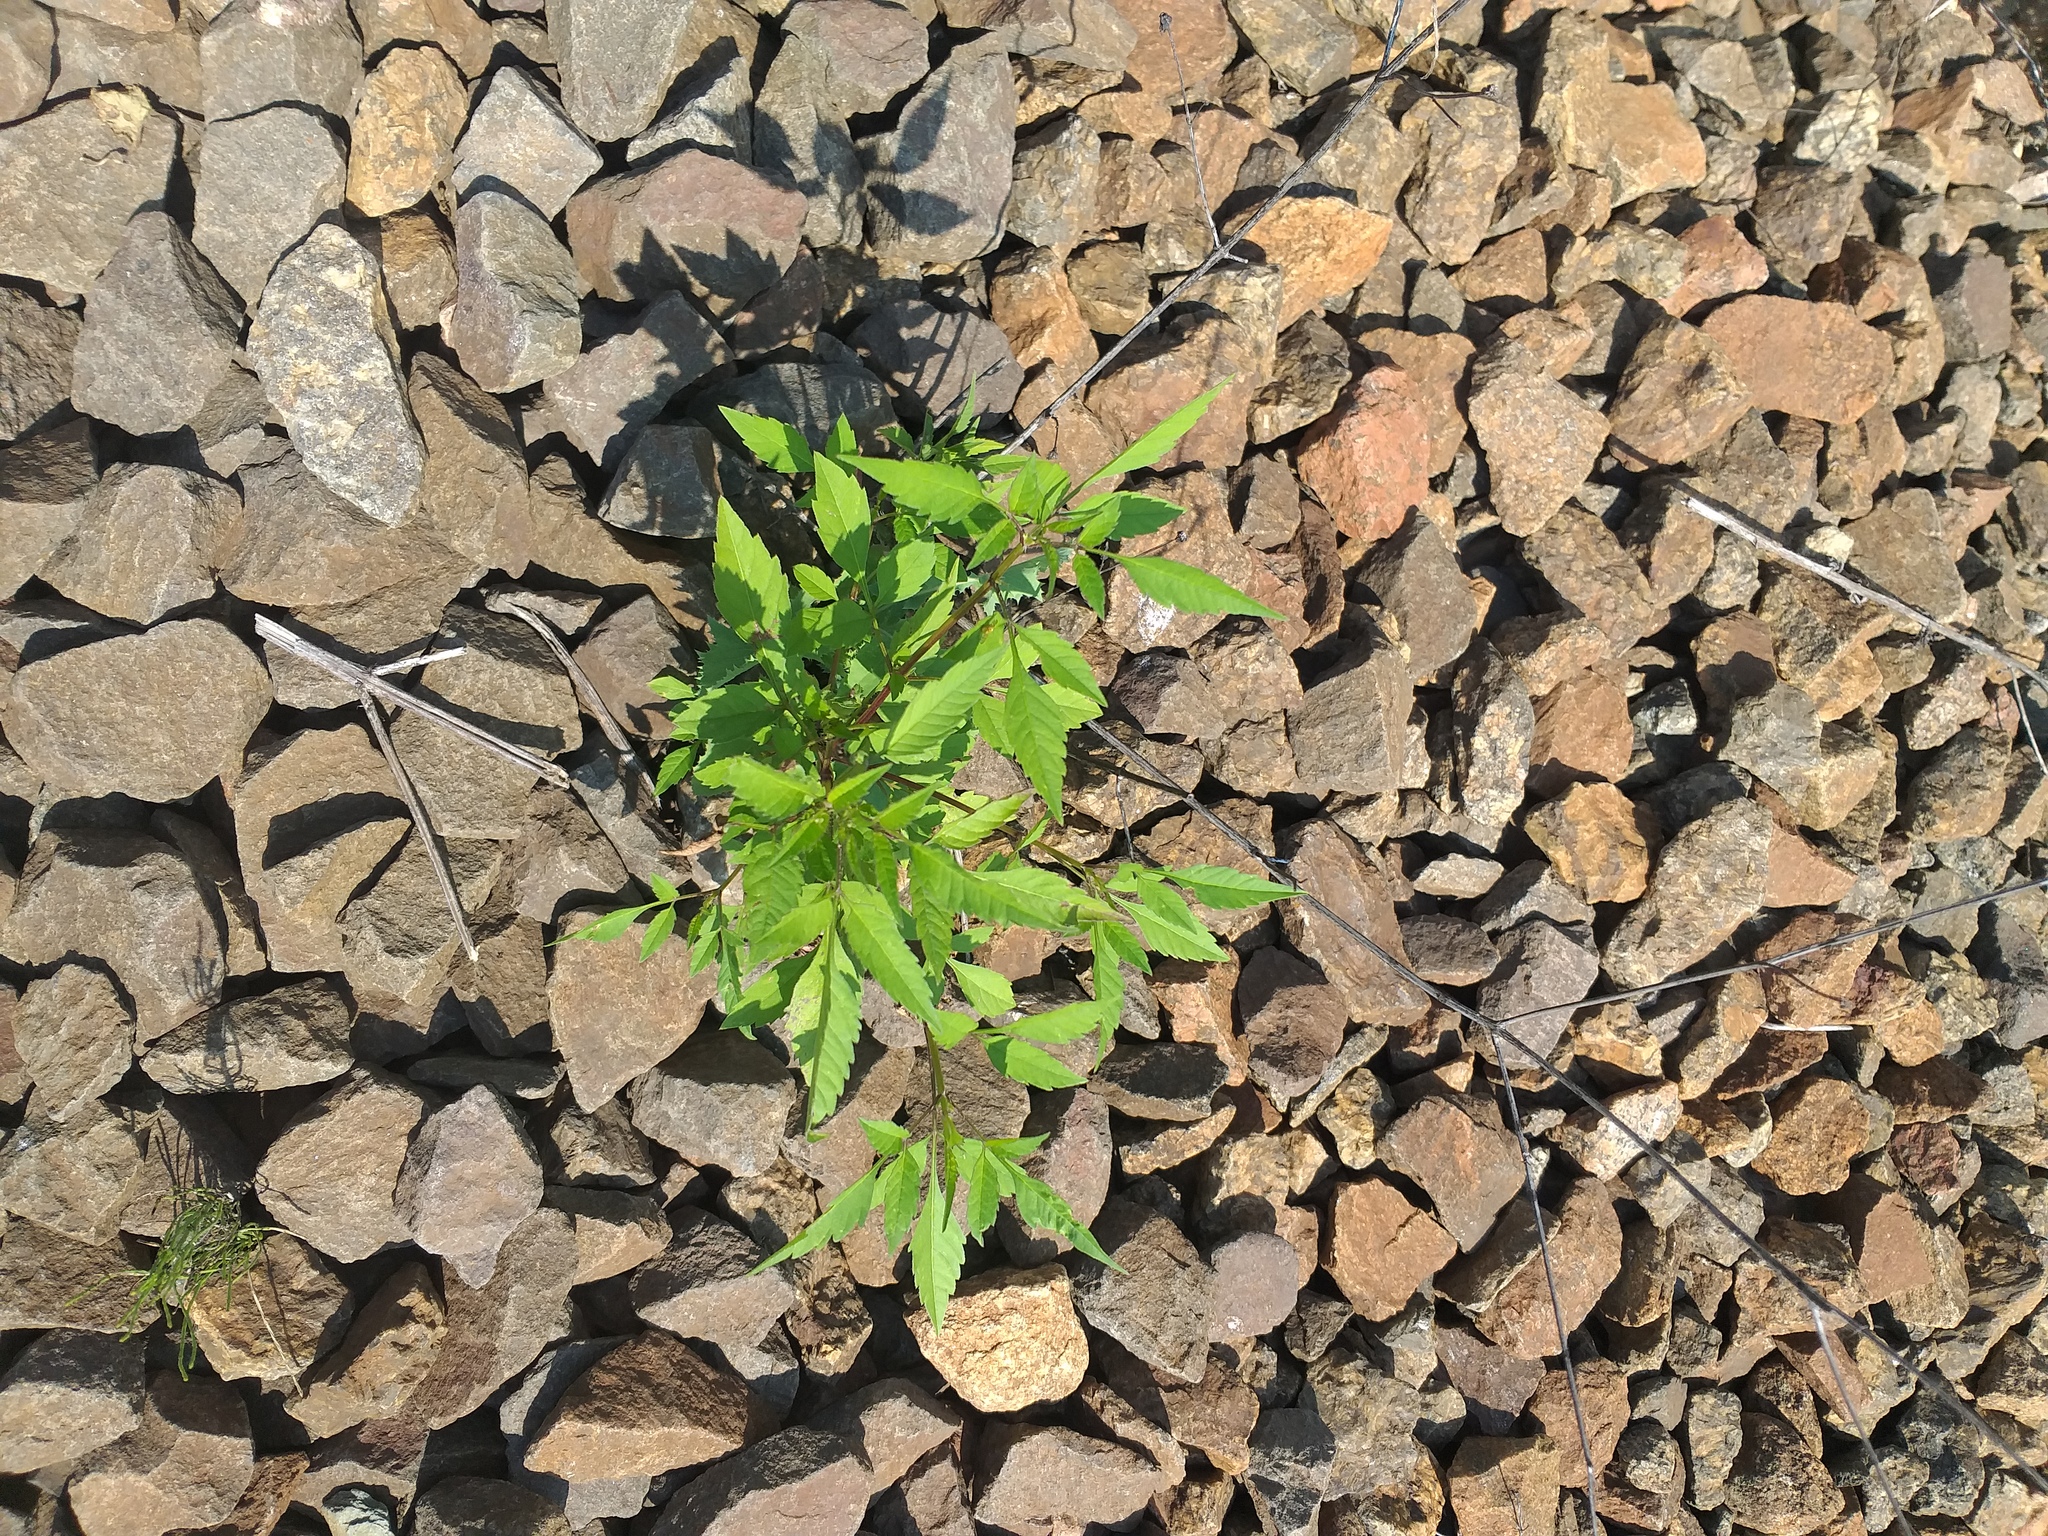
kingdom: Plantae
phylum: Tracheophyta
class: Magnoliopsida
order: Asterales
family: Asteraceae
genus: Bidens
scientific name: Bidens frondosa
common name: Beggarticks
